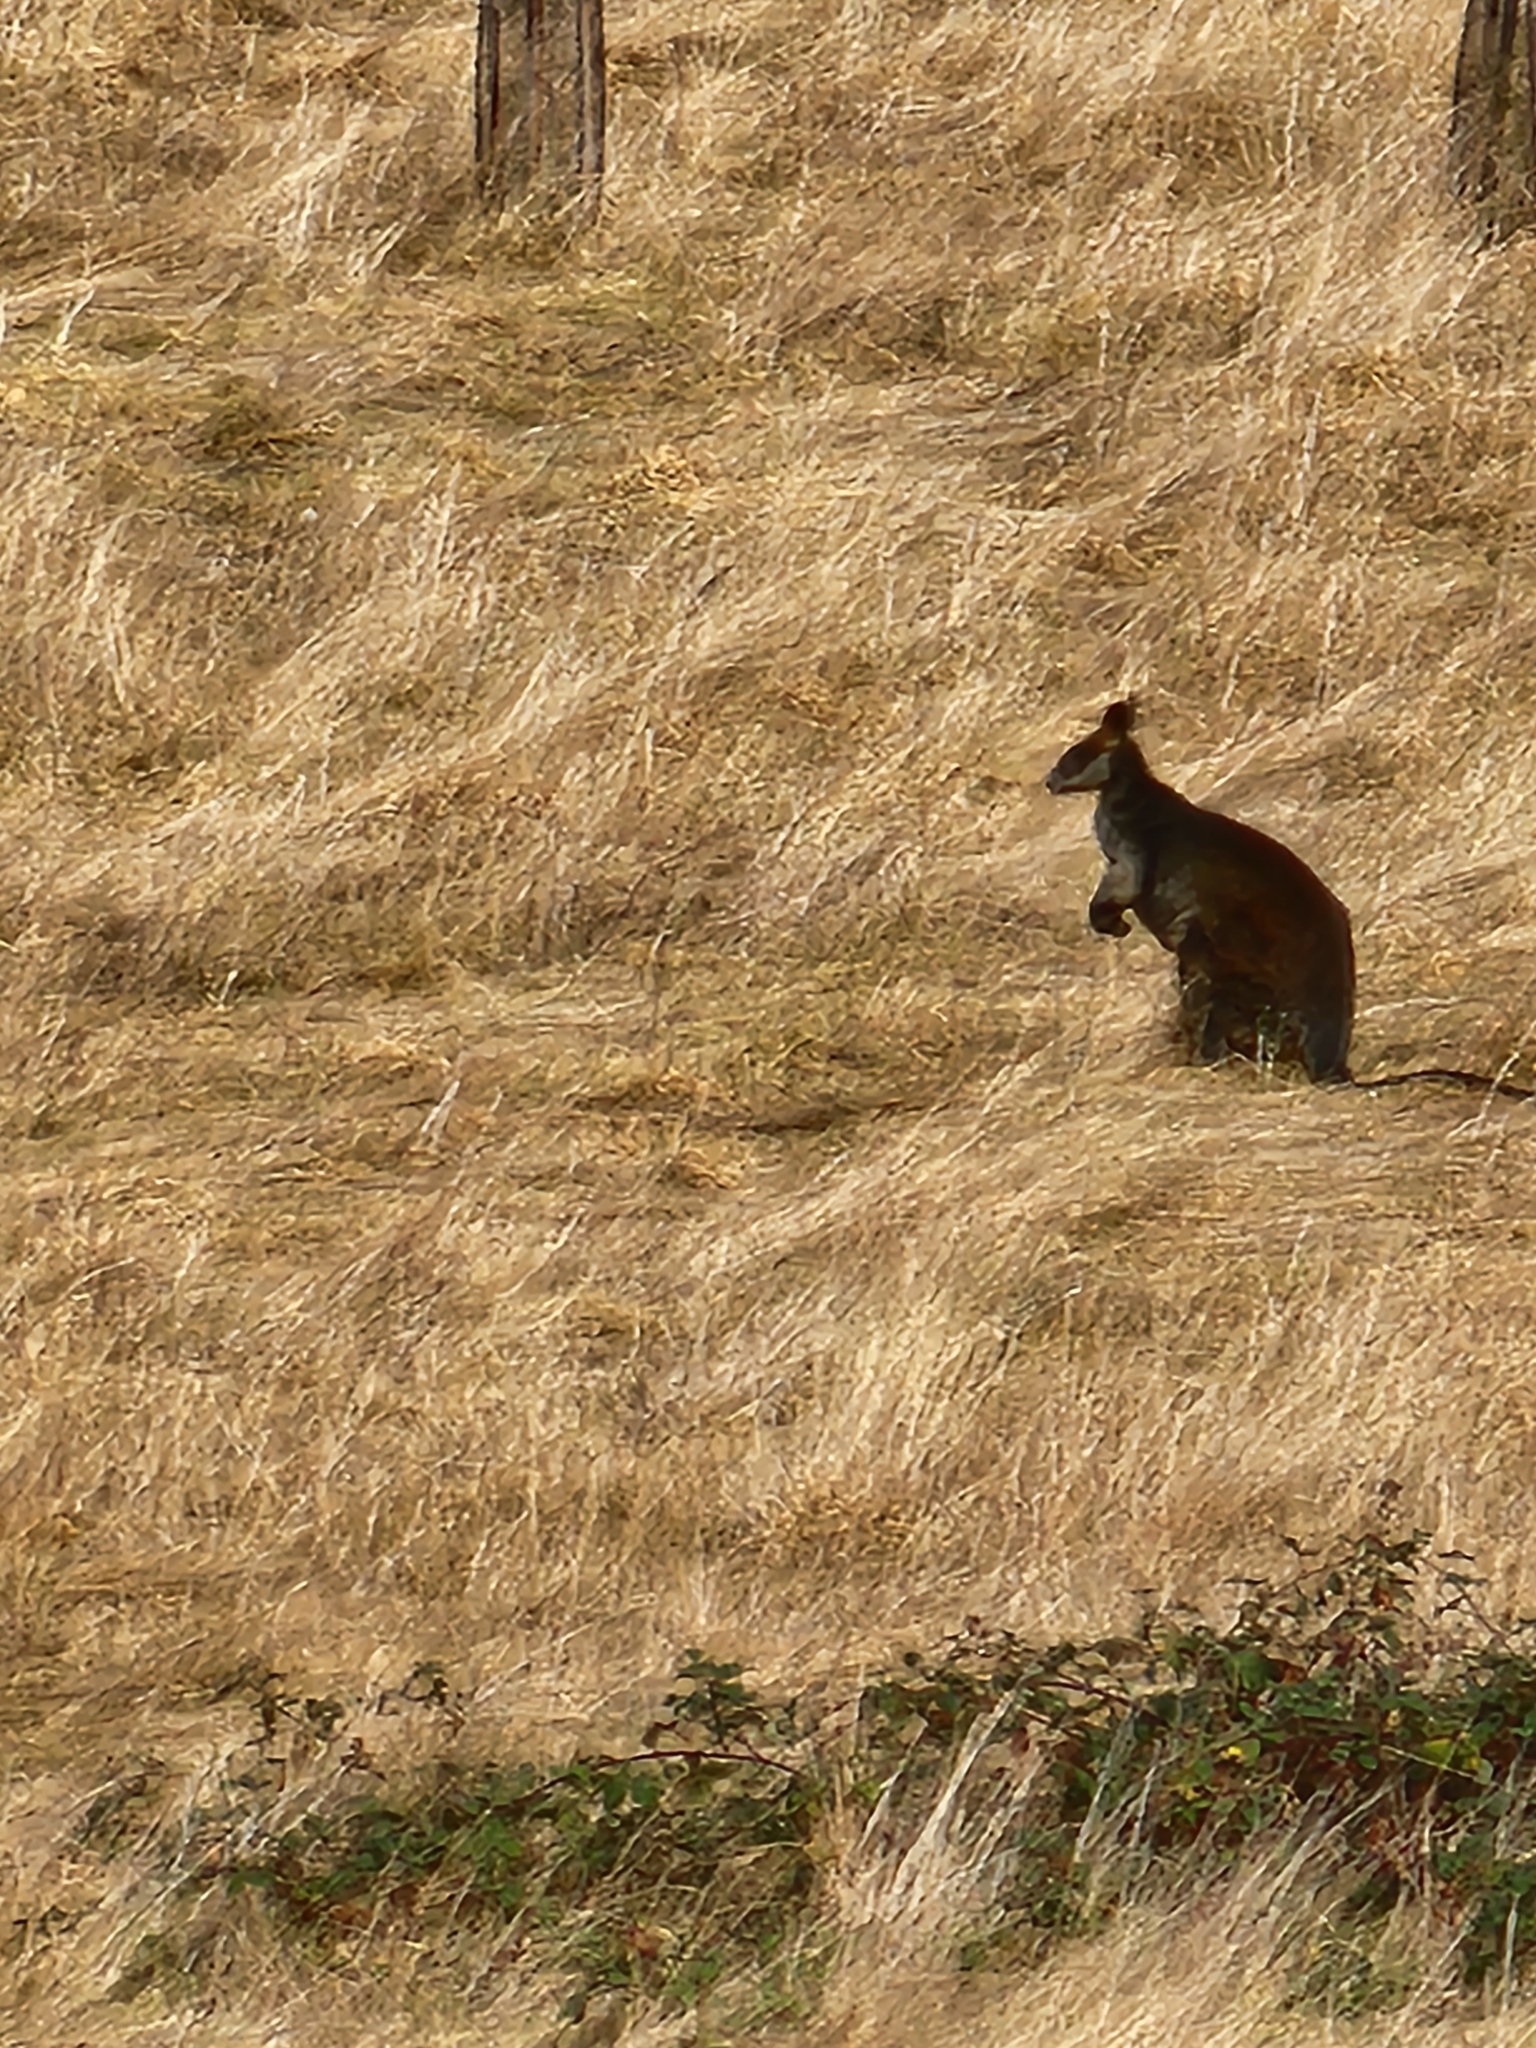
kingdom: Animalia
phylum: Chordata
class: Mammalia
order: Diprotodontia
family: Macropodidae
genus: Wallabia
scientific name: Wallabia bicolor
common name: Swamp wallaby
